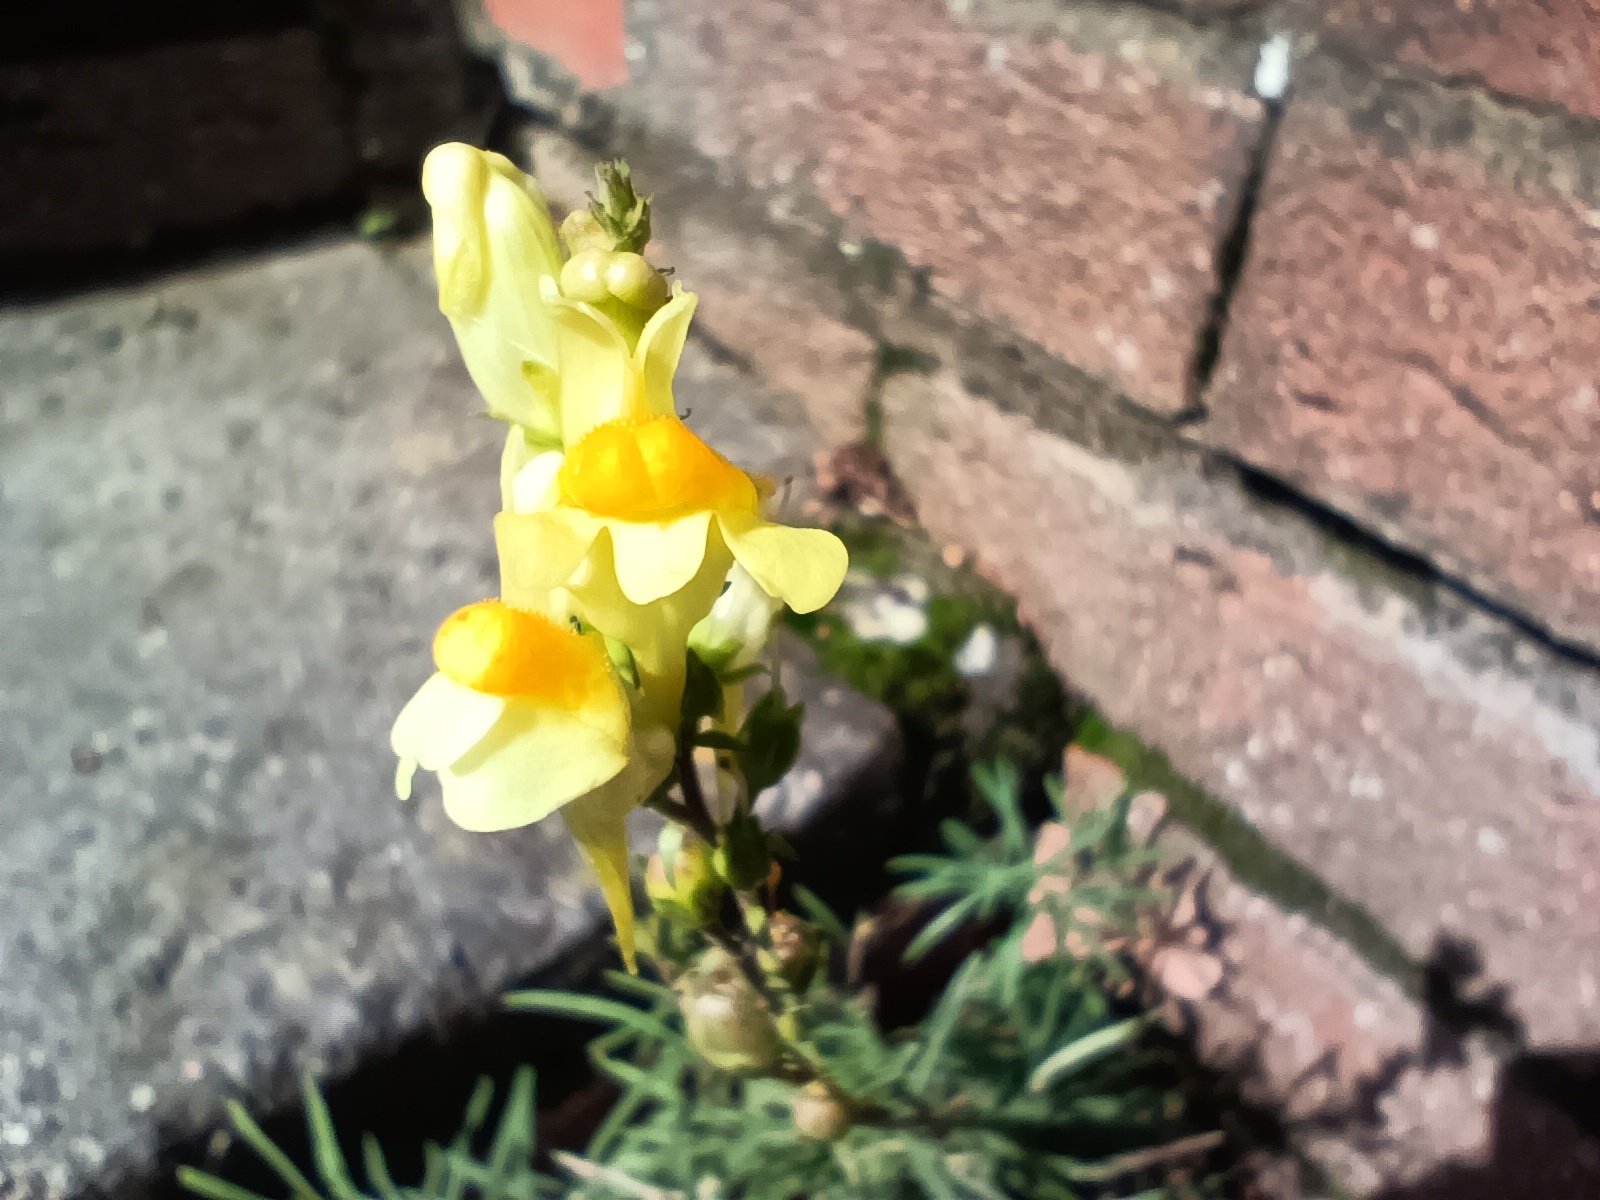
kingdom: Plantae
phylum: Tracheophyta
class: Magnoliopsida
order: Lamiales
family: Plantaginaceae
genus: Linaria
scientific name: Linaria vulgaris
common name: Butter and eggs
